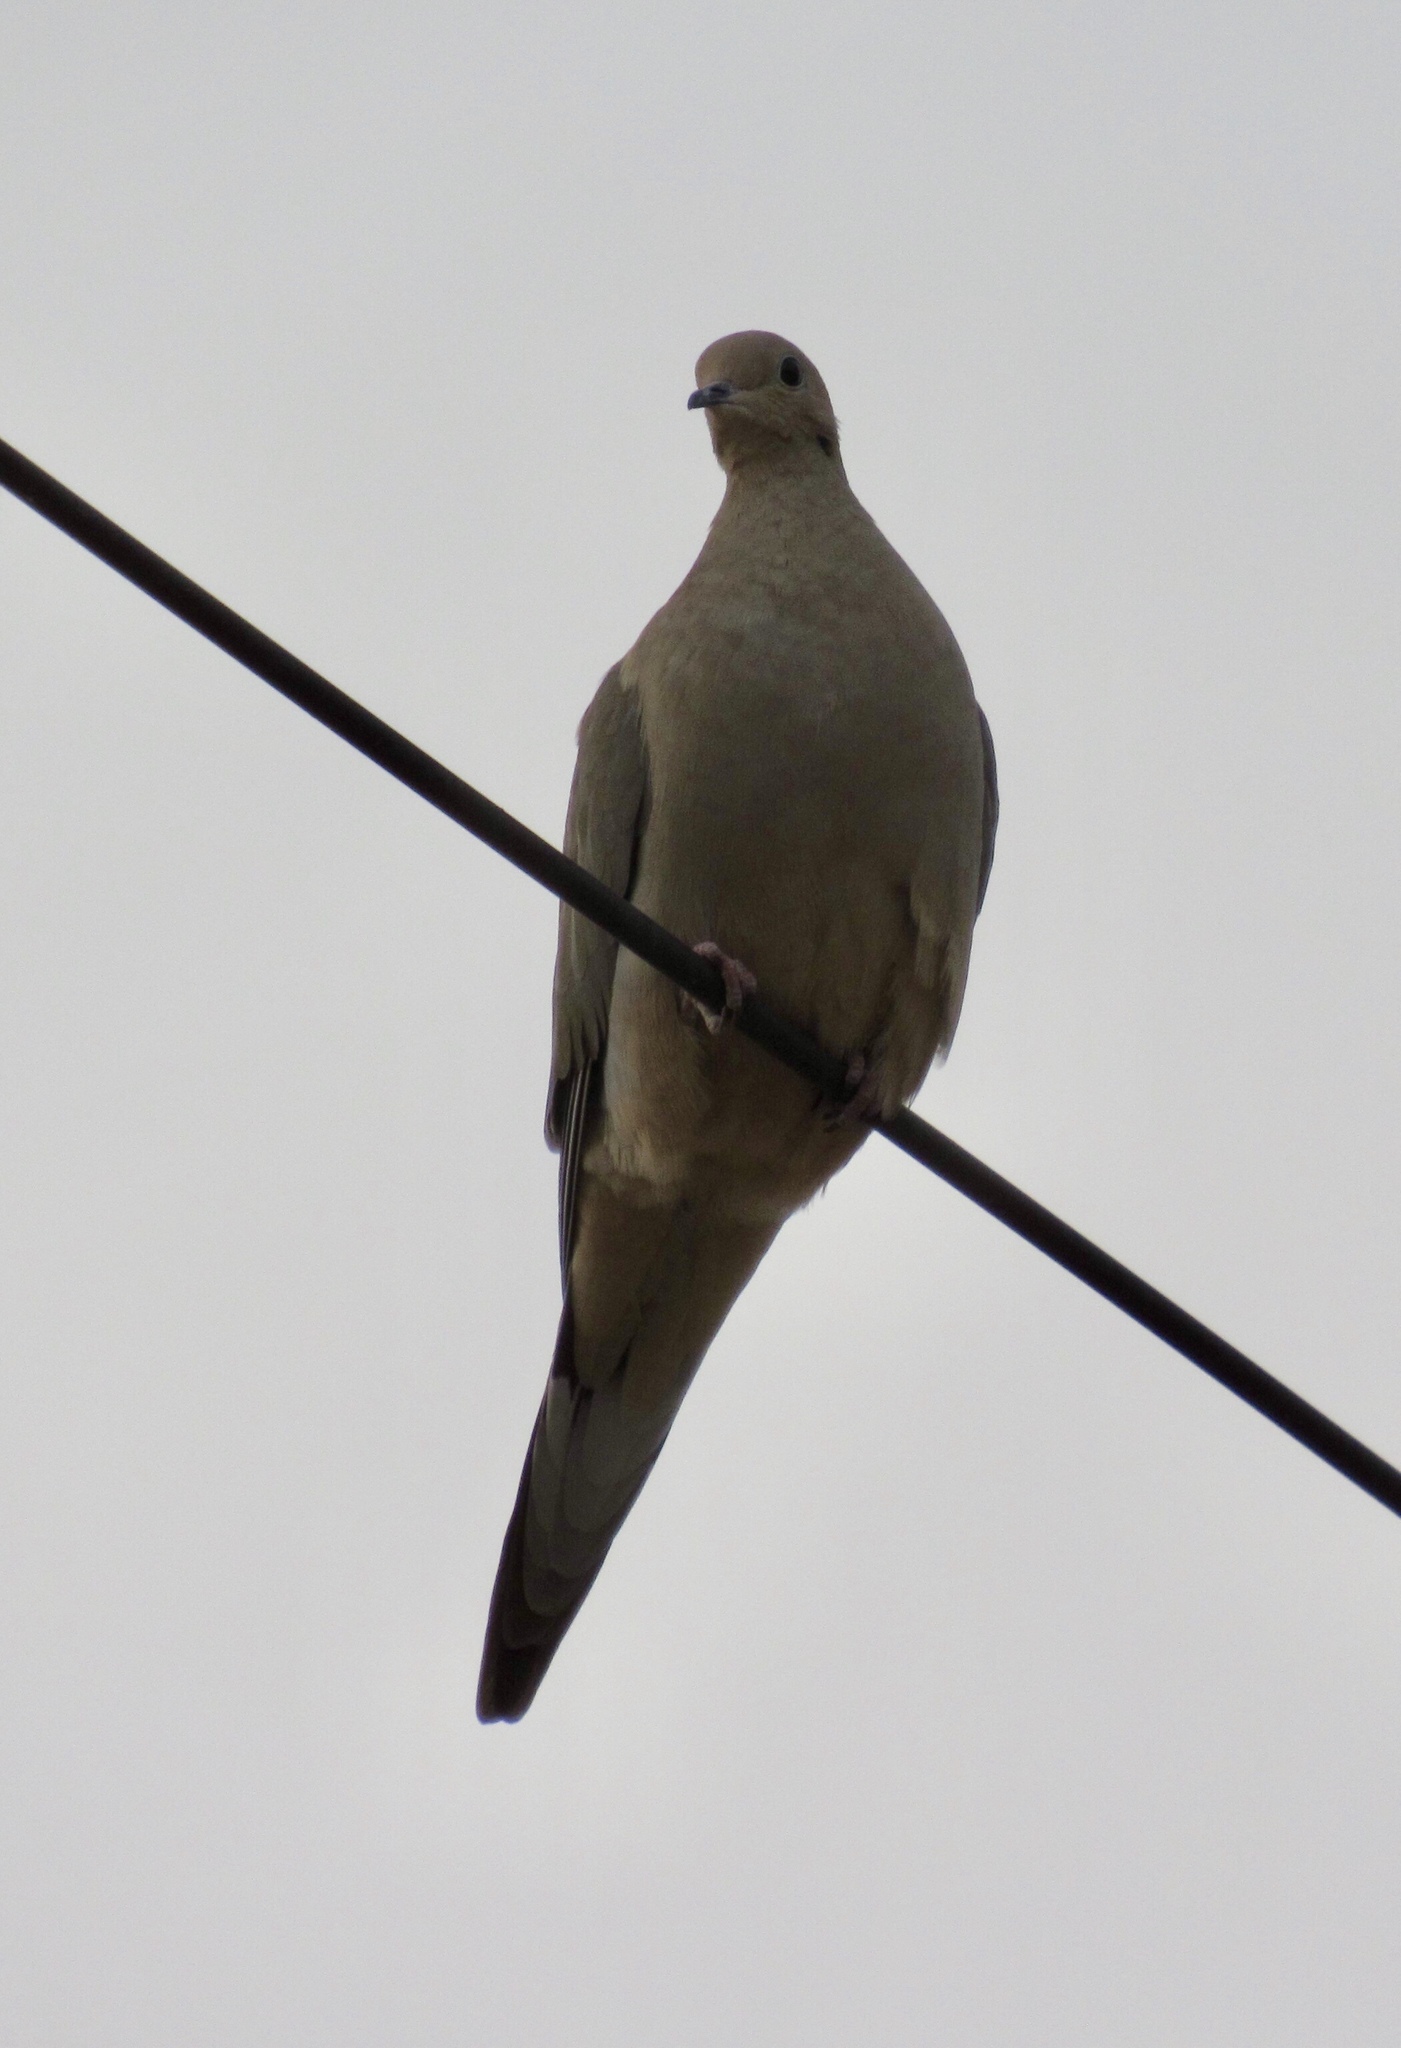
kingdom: Animalia
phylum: Chordata
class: Aves
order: Columbiformes
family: Columbidae
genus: Zenaida
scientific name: Zenaida macroura
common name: Mourning dove
